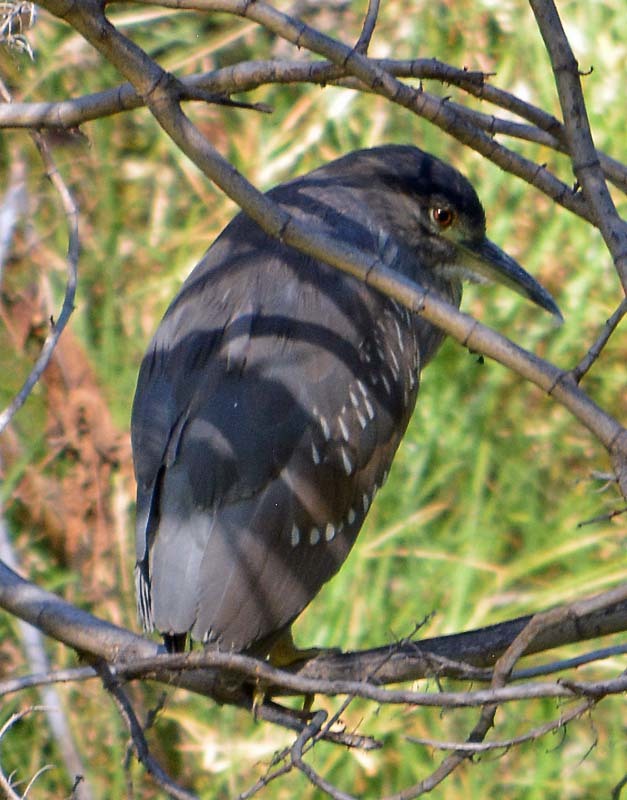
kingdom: Animalia
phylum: Chordata
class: Aves
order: Pelecaniformes
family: Ardeidae
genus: Nycticorax
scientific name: Nycticorax nycticorax
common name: Black-crowned night heron
